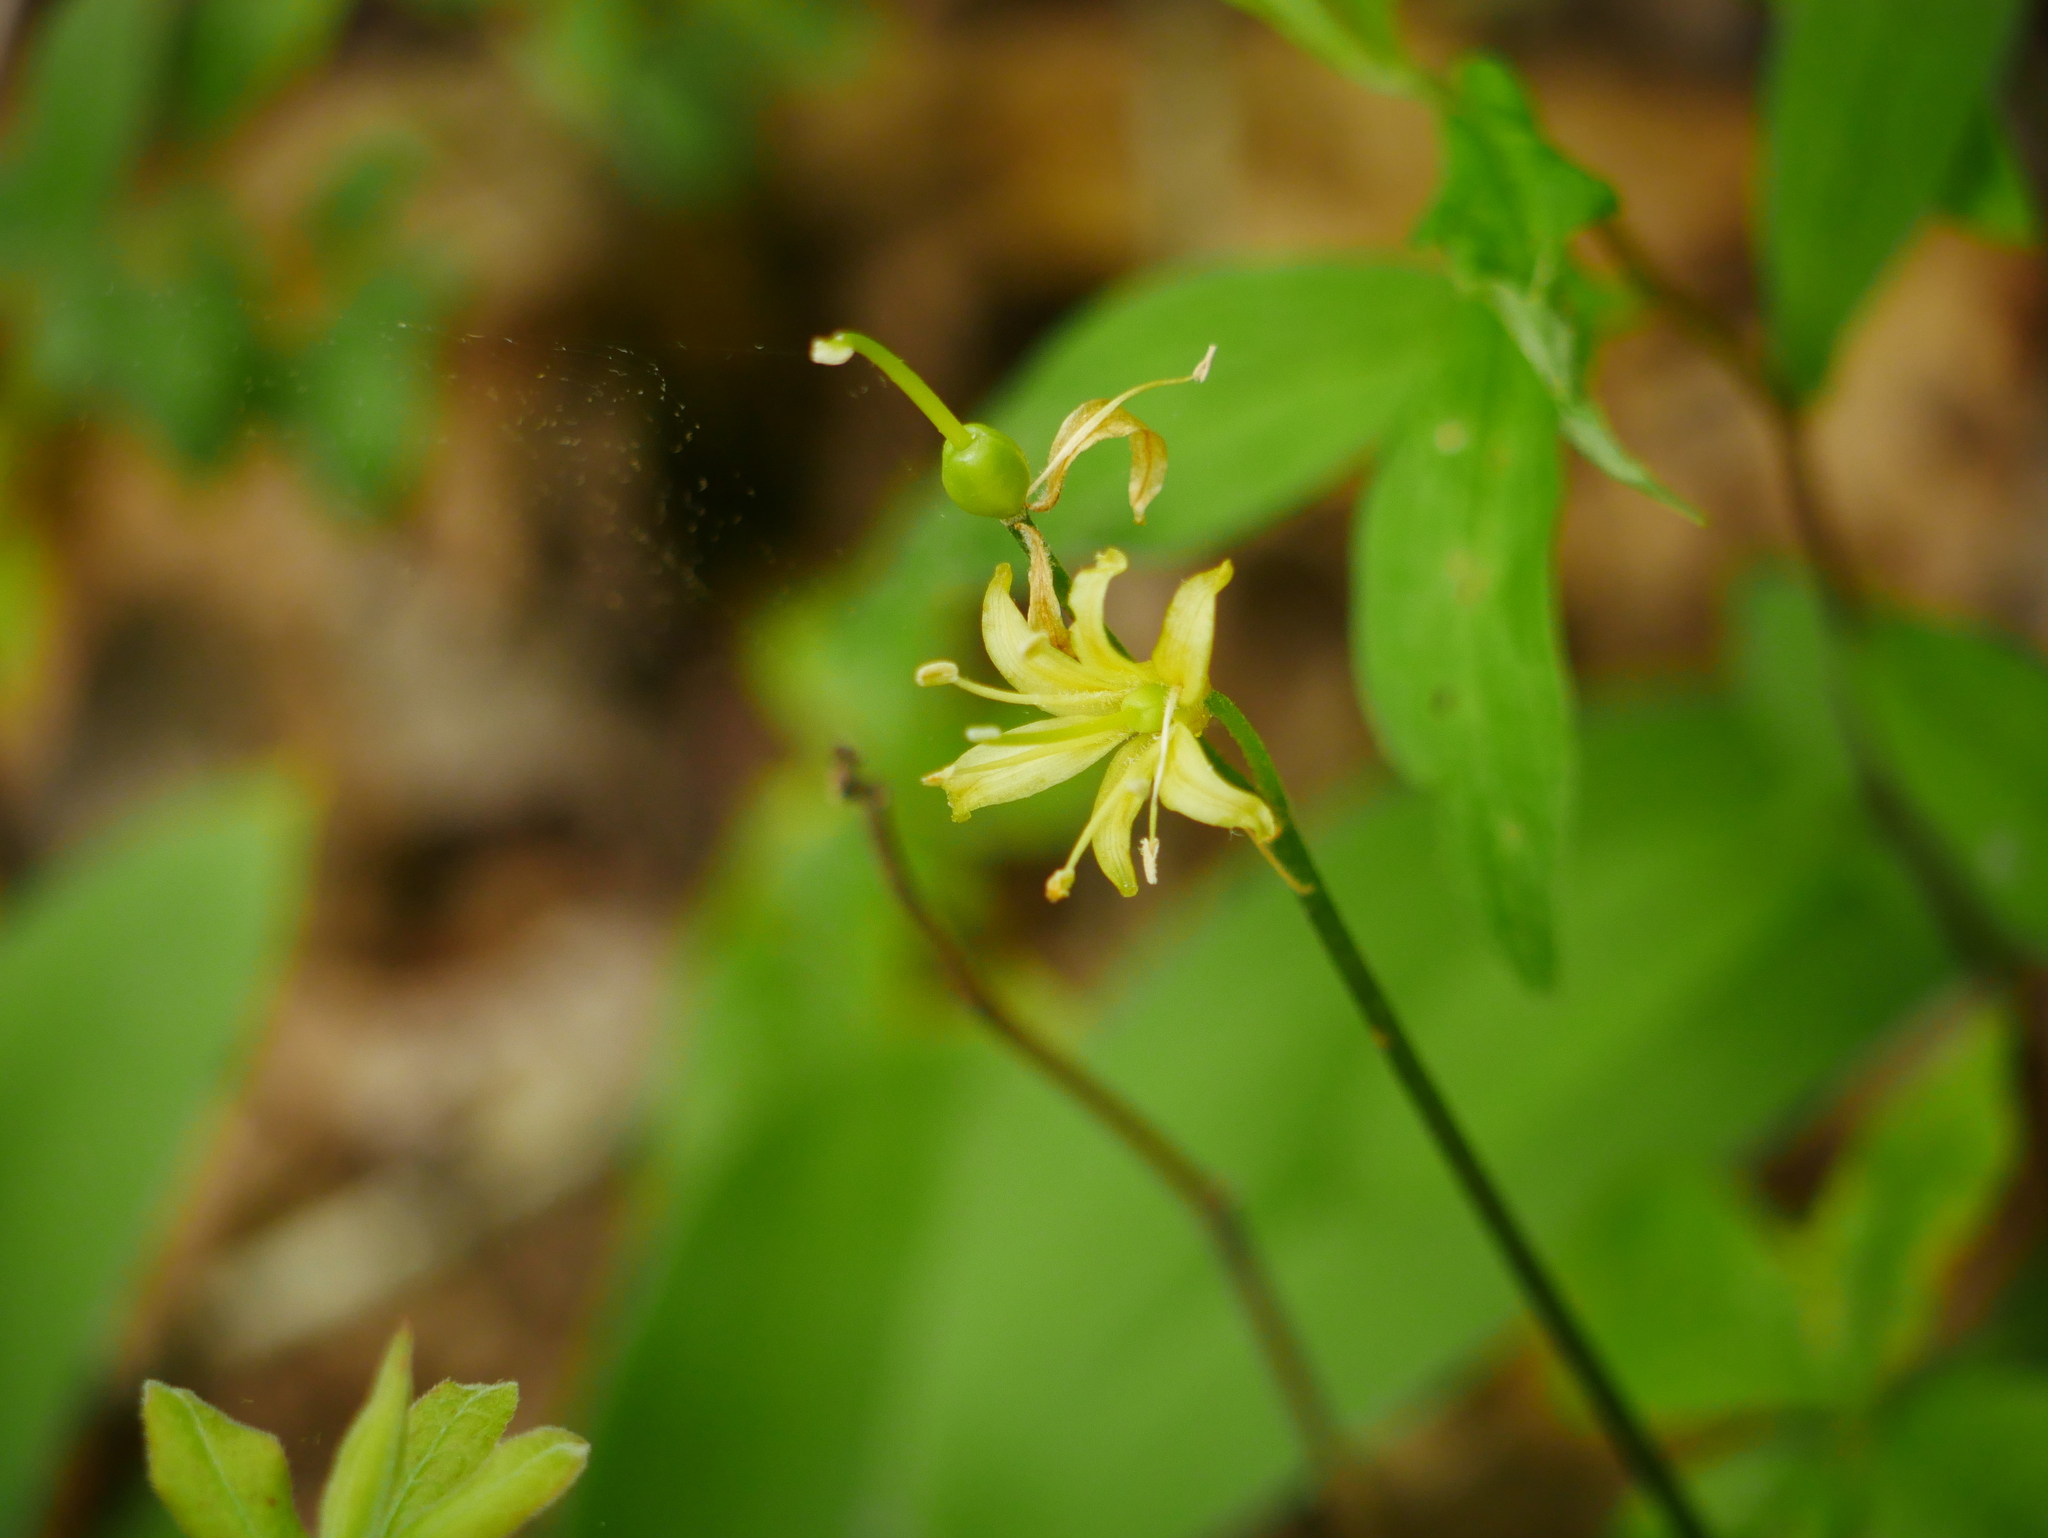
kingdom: Plantae
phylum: Tracheophyta
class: Liliopsida
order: Liliales
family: Liliaceae
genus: Clintonia
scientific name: Clintonia borealis
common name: Yellow clintonia
